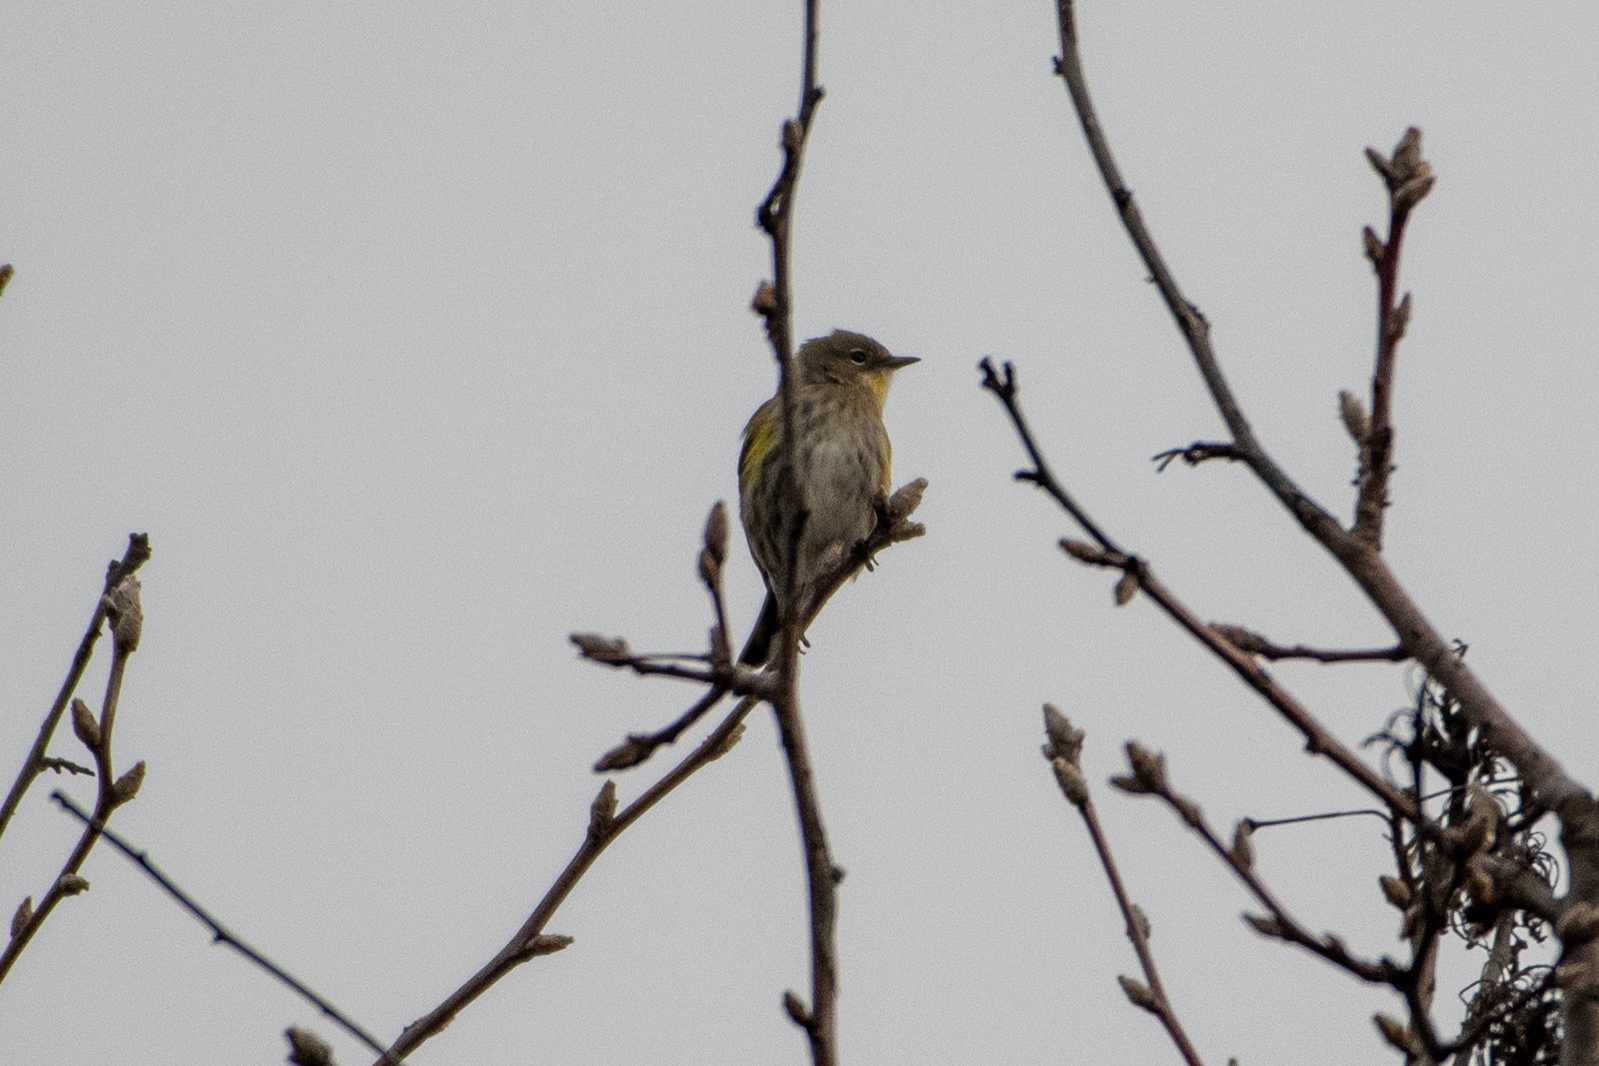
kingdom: Animalia
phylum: Chordata
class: Aves
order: Passeriformes
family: Parulidae
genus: Setophaga
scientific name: Setophaga coronata
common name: Myrtle warbler
